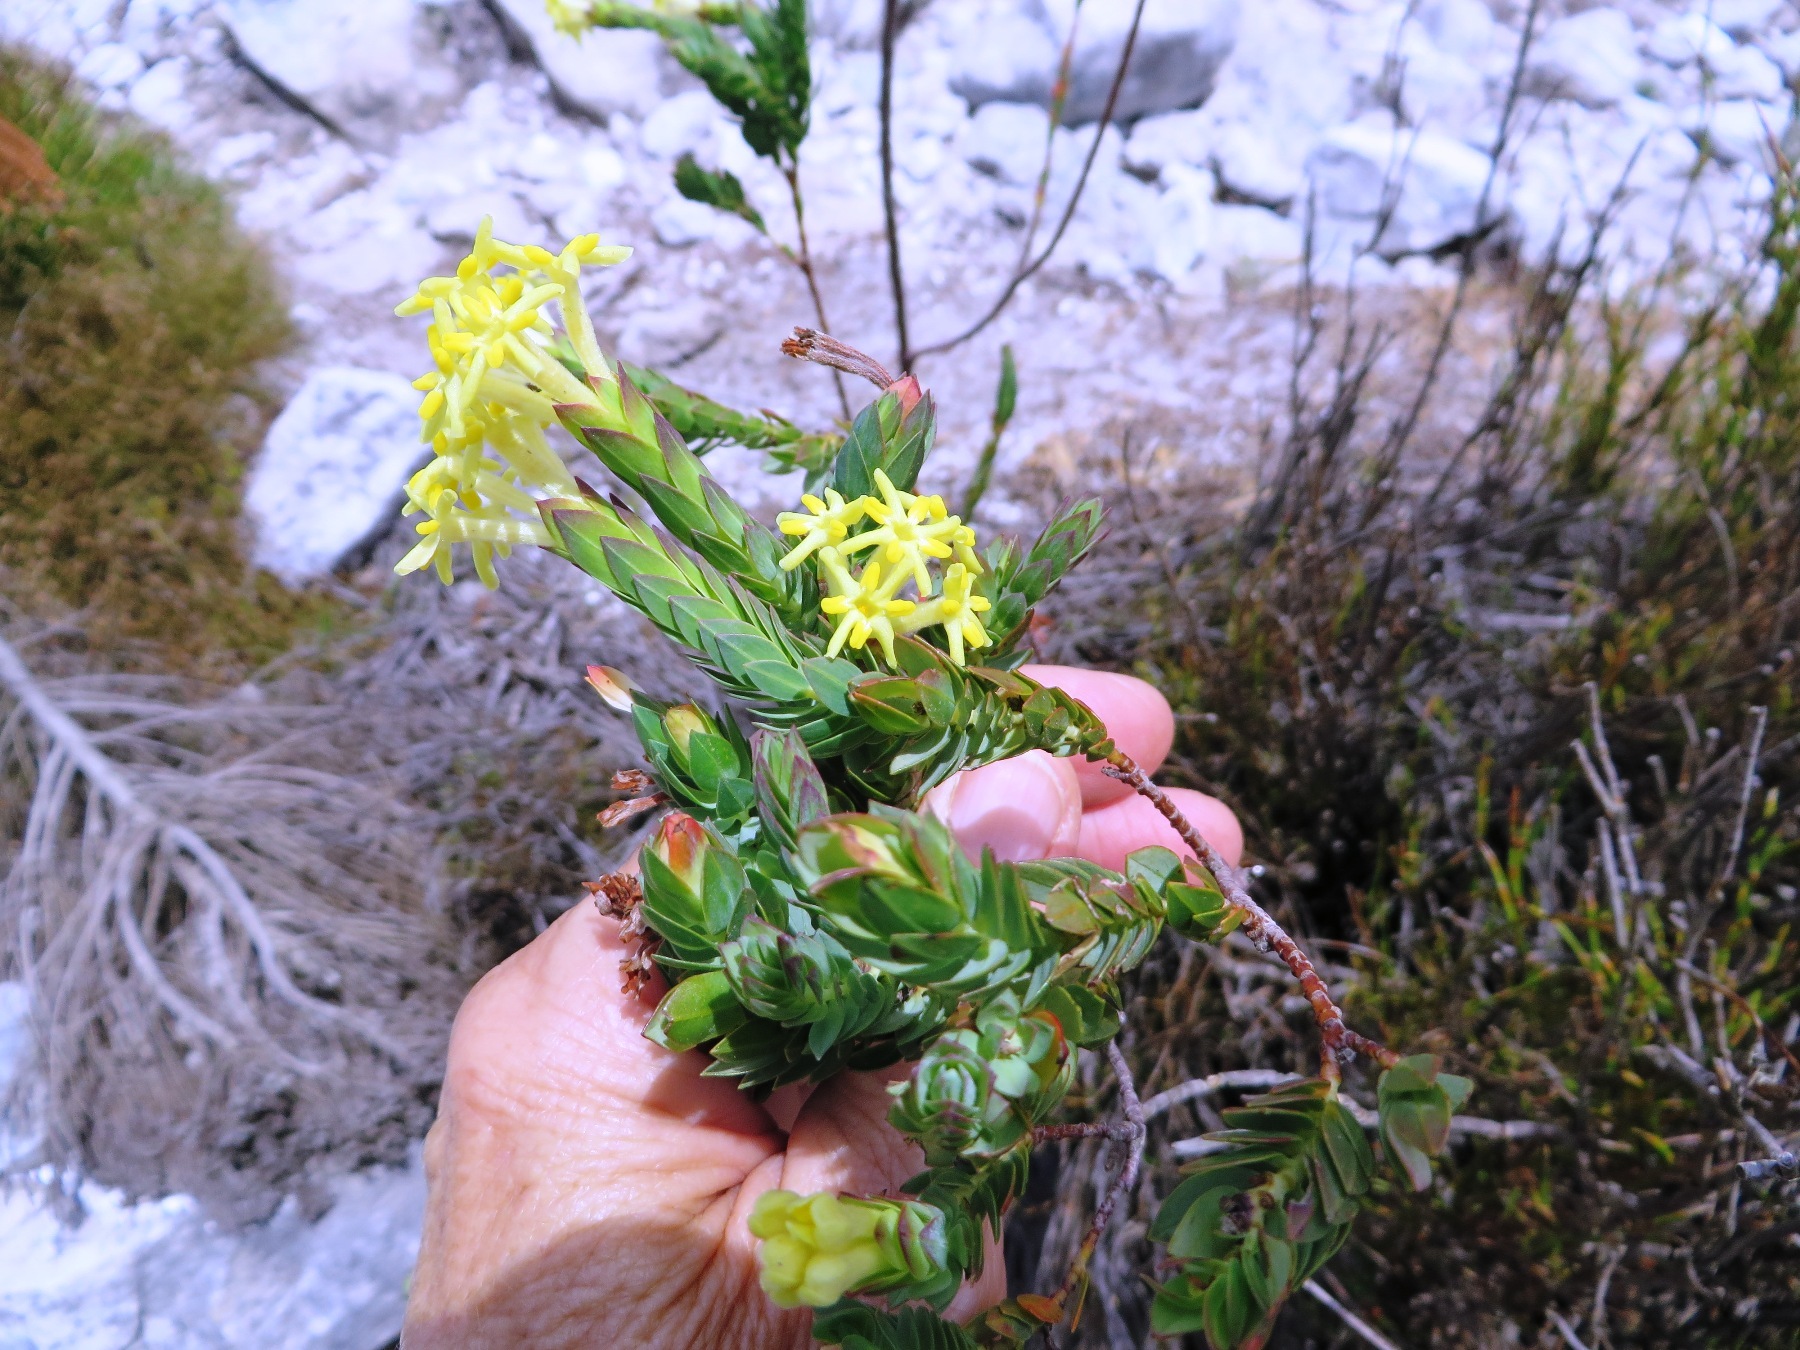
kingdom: Plantae
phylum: Tracheophyta
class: Magnoliopsida
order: Malvales
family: Thymelaeaceae
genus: Gnidia
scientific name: Gnidia oppositifolia
